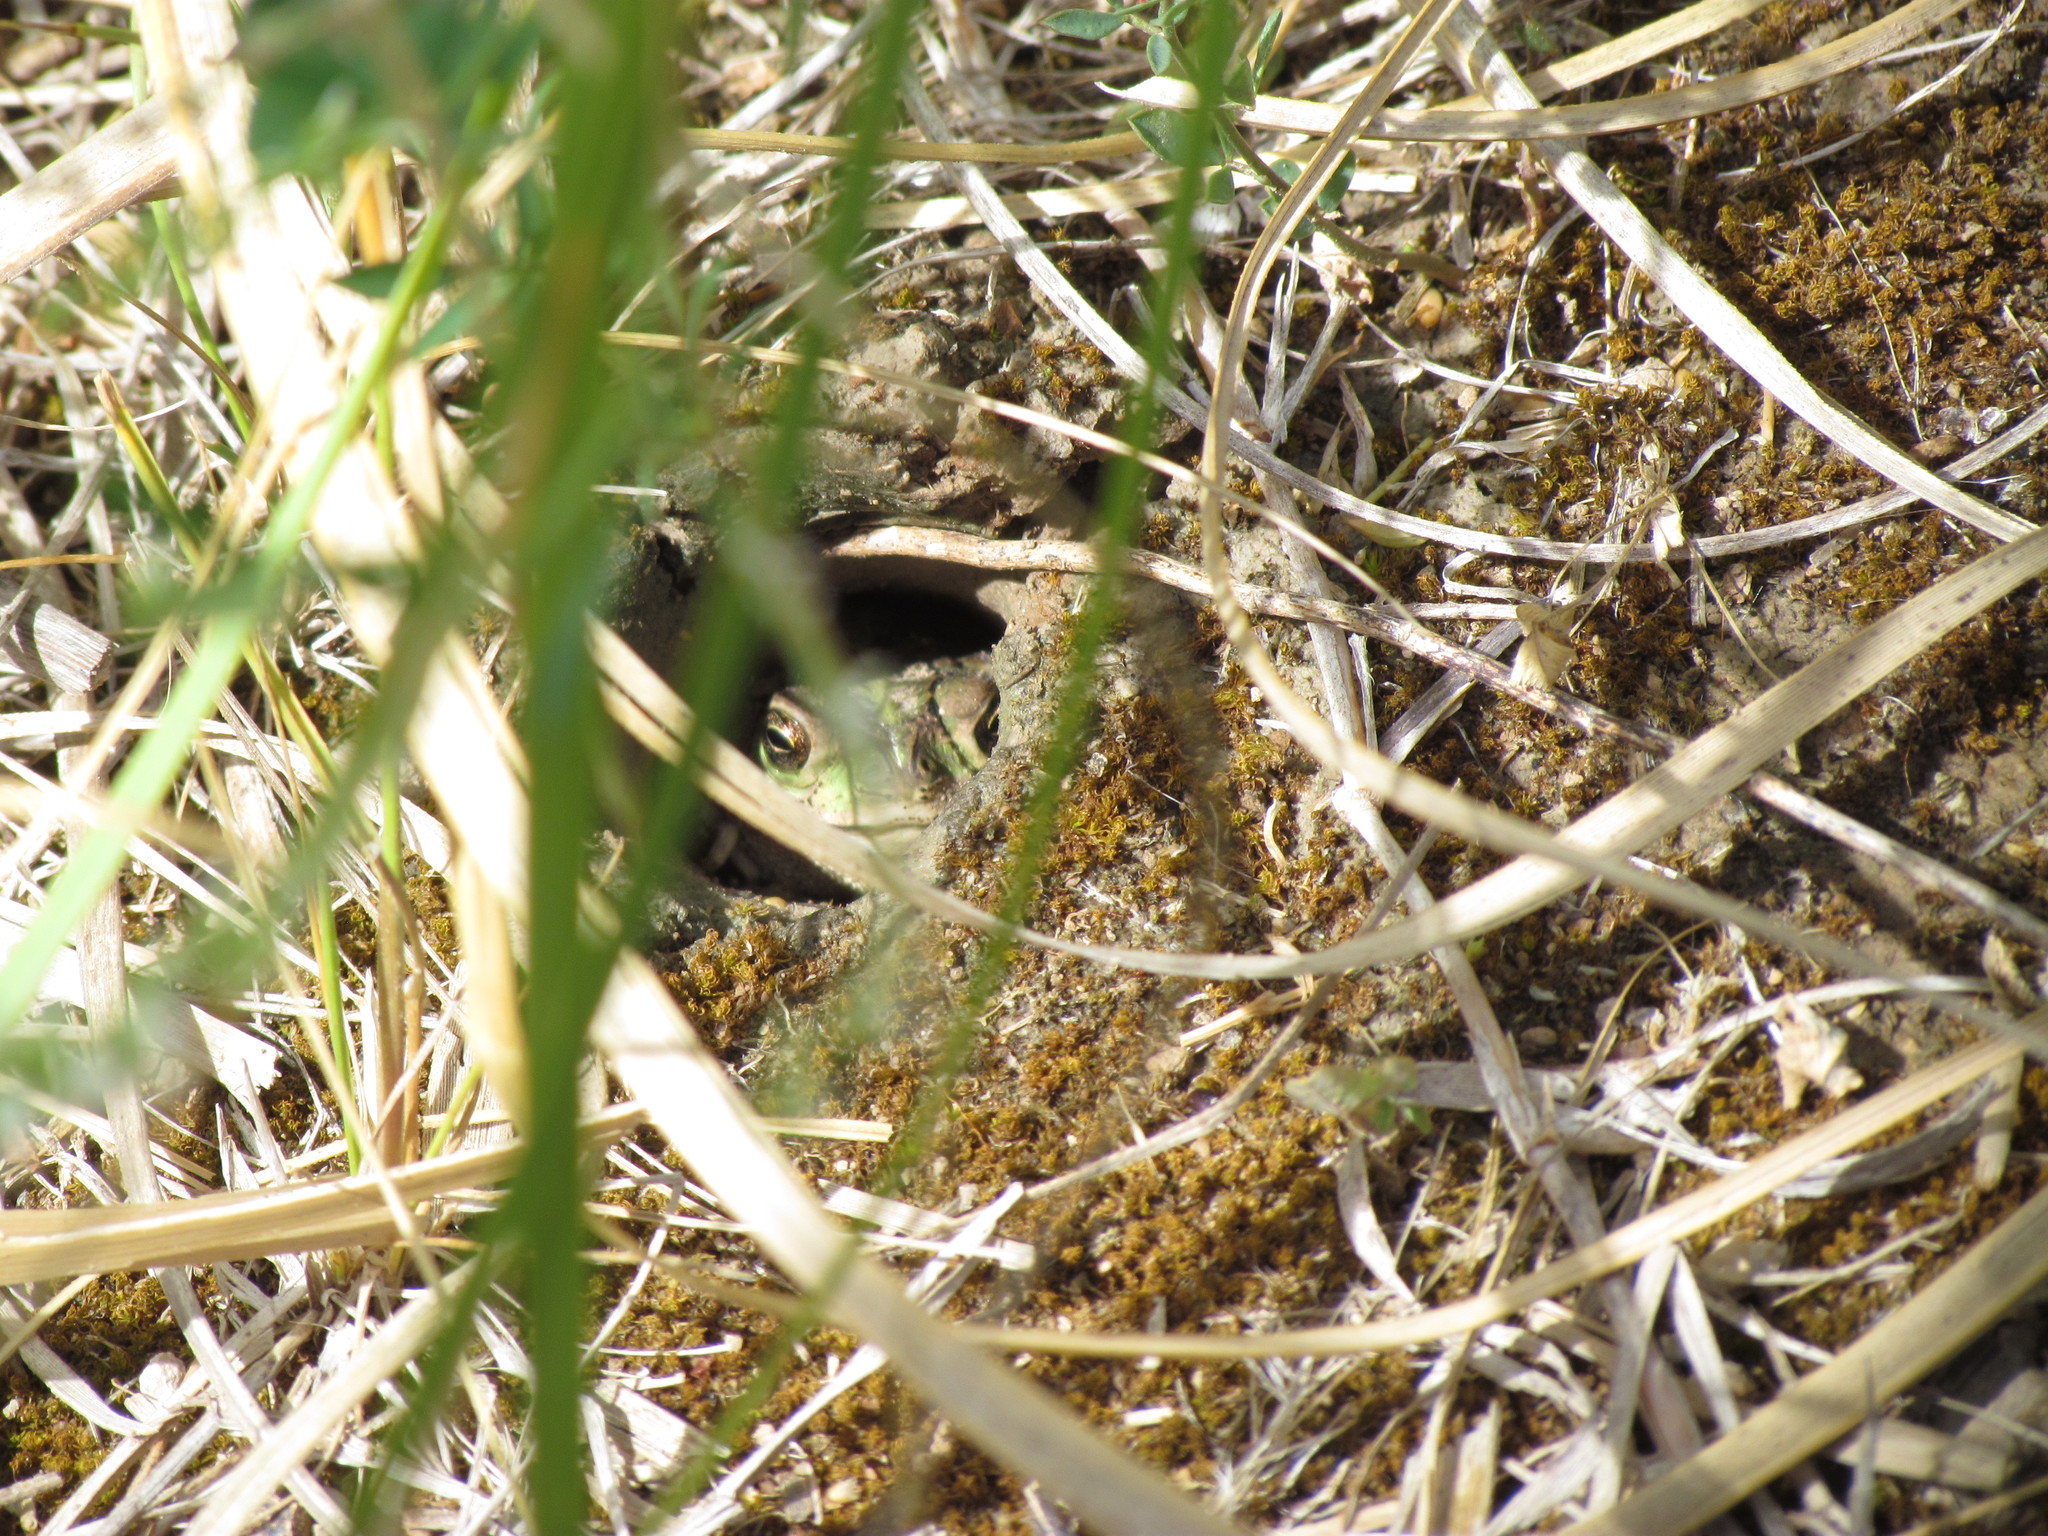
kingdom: Animalia
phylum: Chordata
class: Amphibia
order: Anura
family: Bufonidae
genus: Rhinella
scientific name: Rhinella dorbignyi
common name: D´orbigny’s toad
